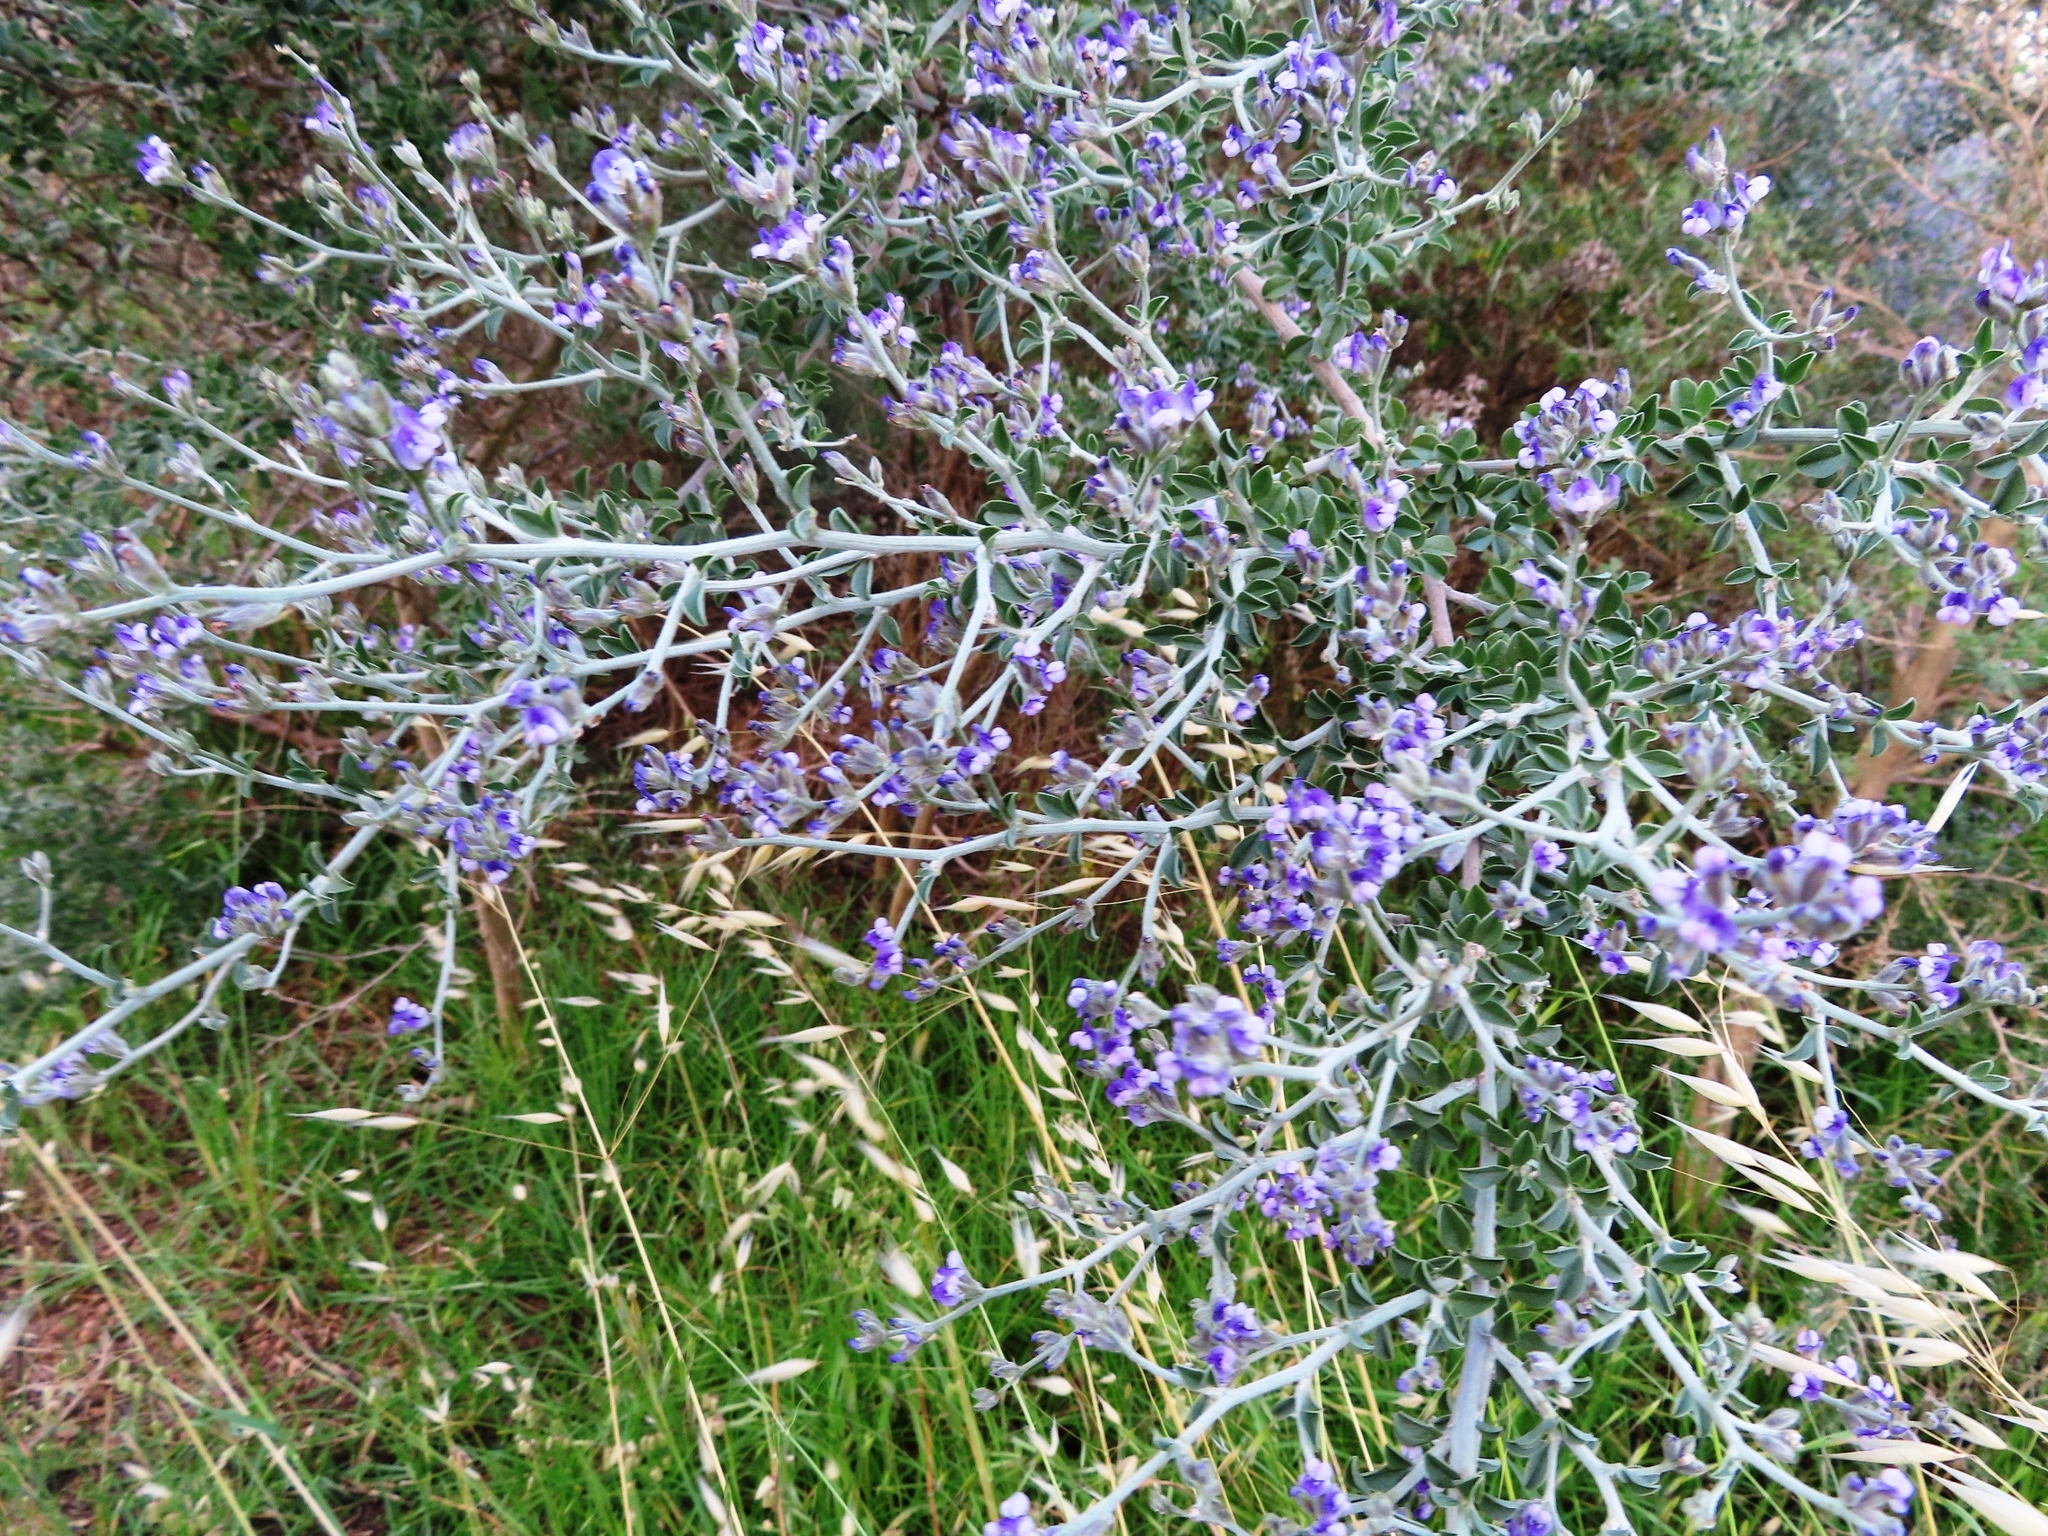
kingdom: Plantae
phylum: Tracheophyta
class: Magnoliopsida
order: Fabales
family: Fabaceae
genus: Psoralea
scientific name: Psoralea hirta
